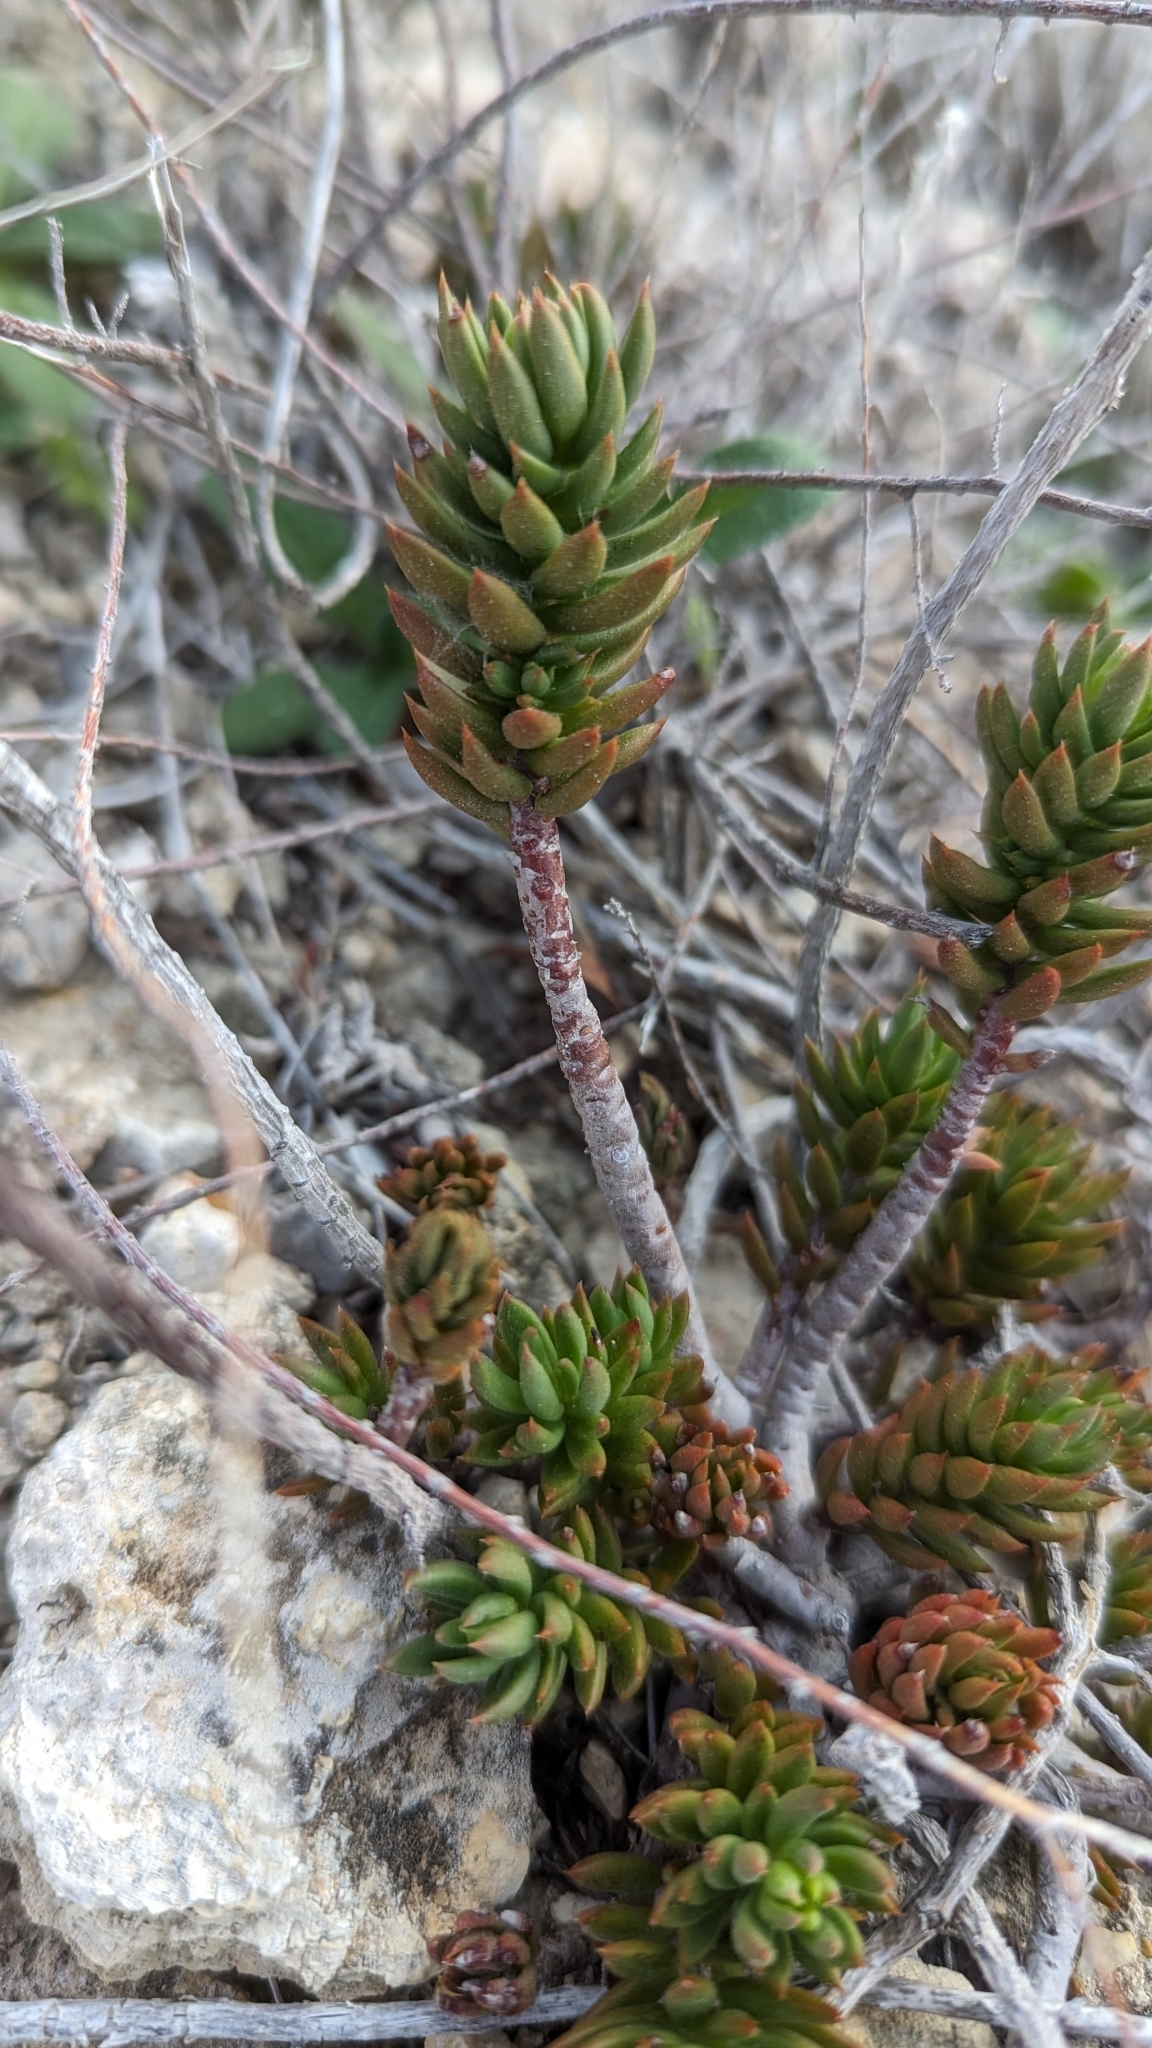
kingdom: Plantae
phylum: Tracheophyta
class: Magnoliopsida
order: Saxifragales
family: Crassulaceae
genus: Petrosedum
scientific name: Petrosedum sediforme
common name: Pale stonecrop
